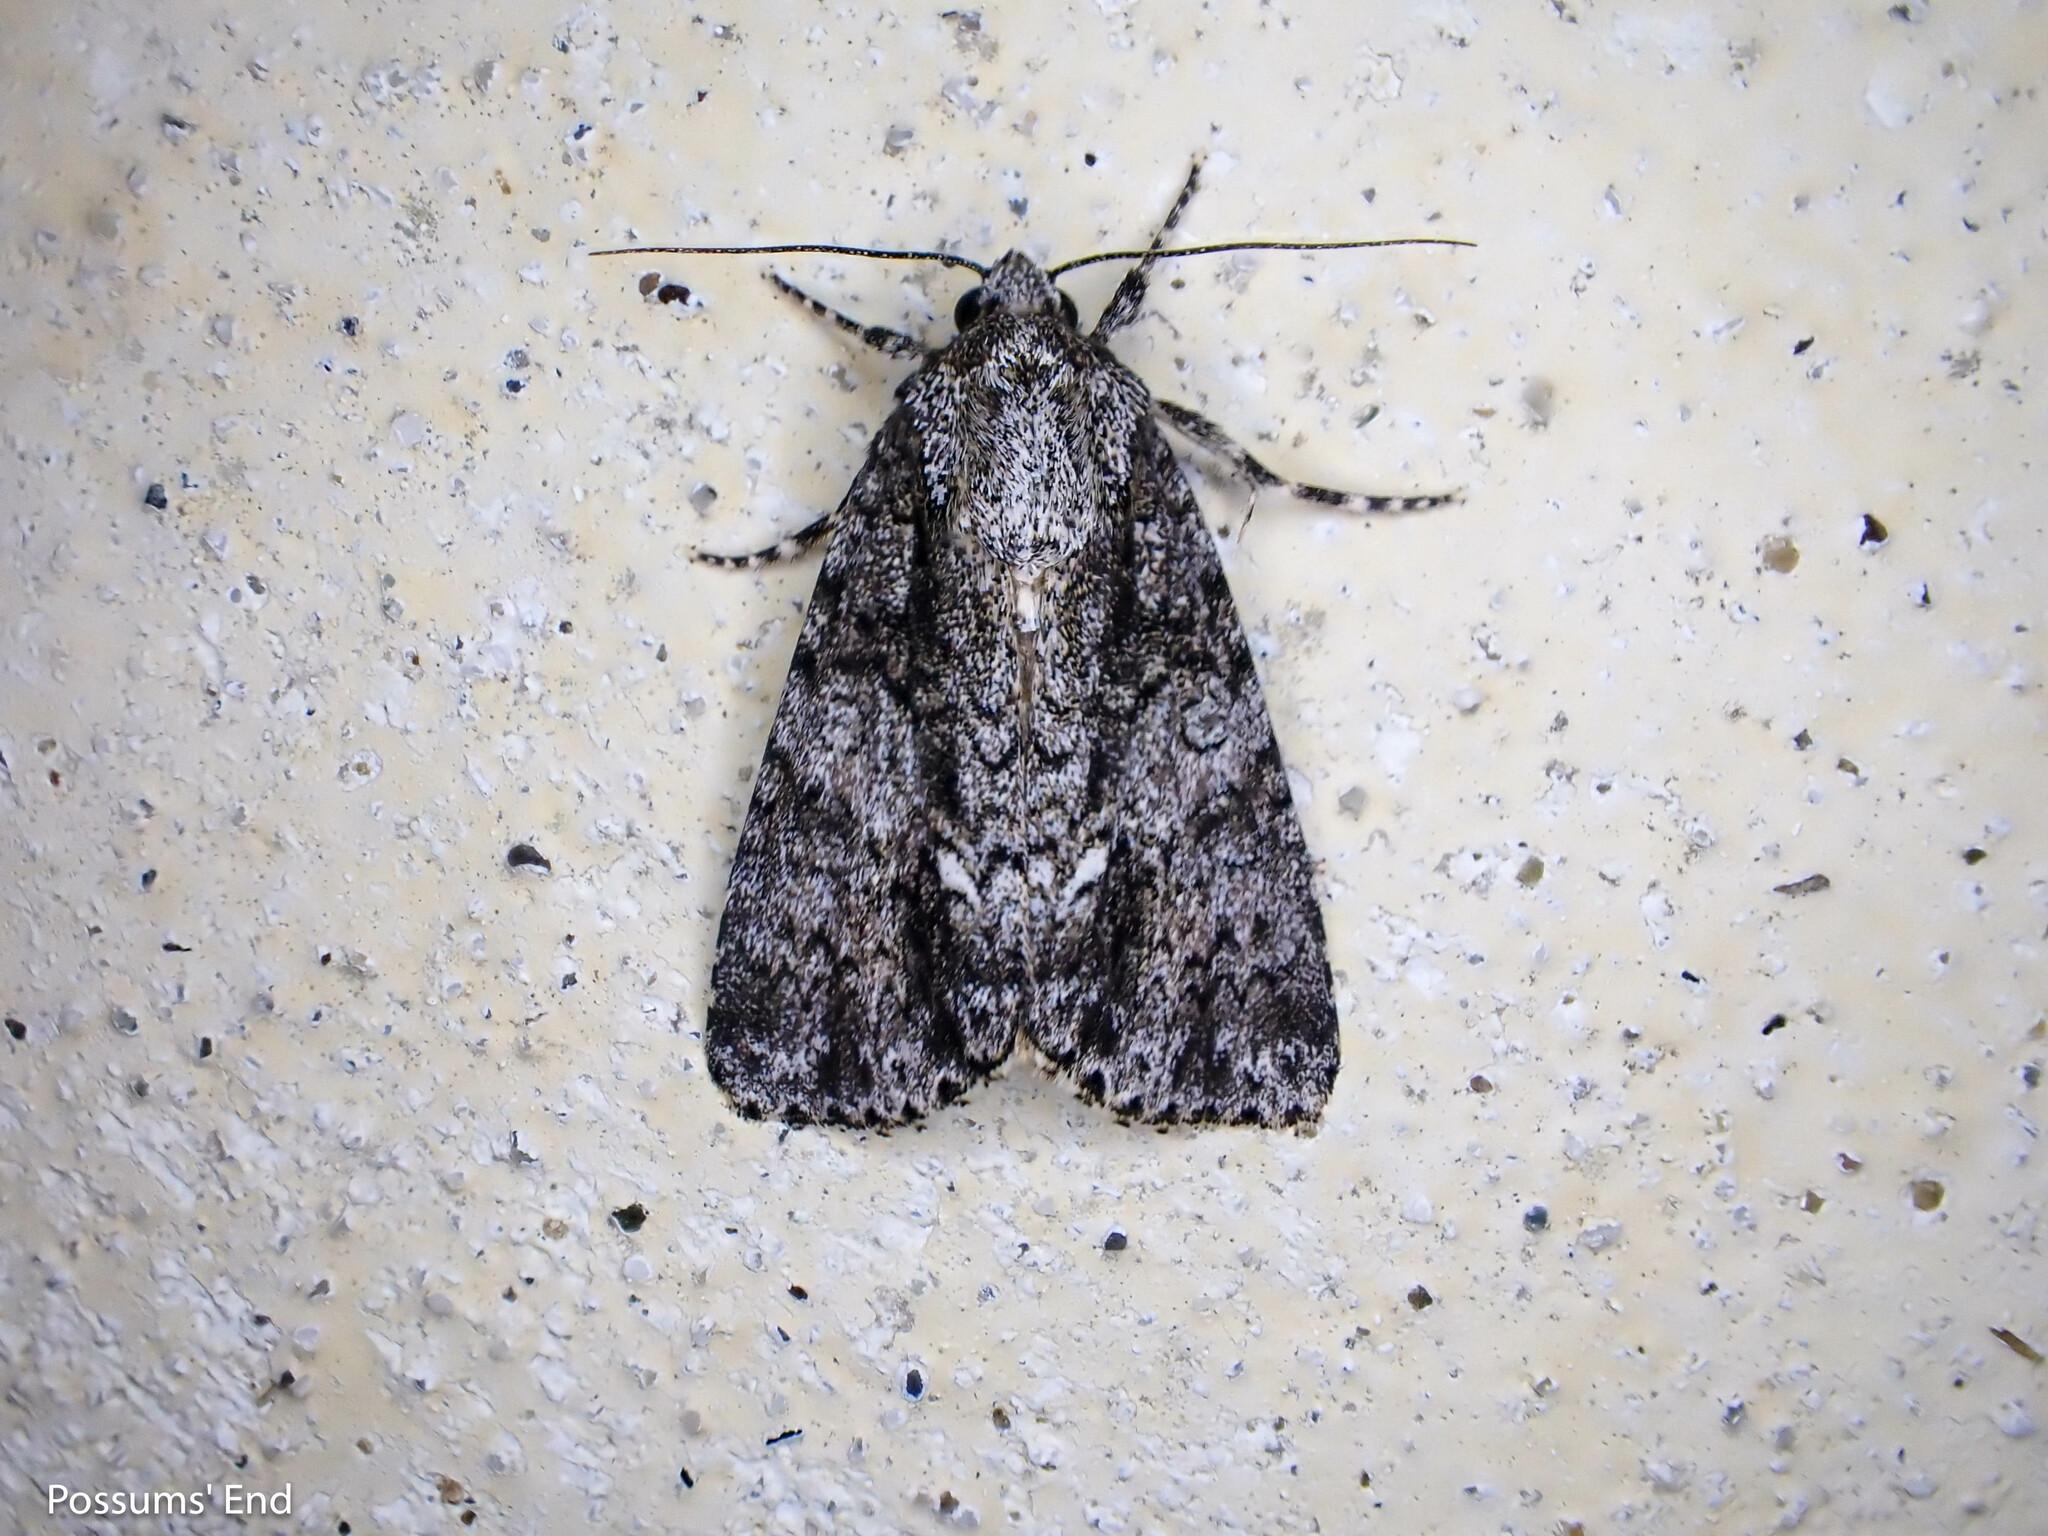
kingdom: Animalia
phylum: Arthropoda
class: Insecta
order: Lepidoptera
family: Noctuidae
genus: Acronicta
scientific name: Acronicta rumicis
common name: Knot grass
